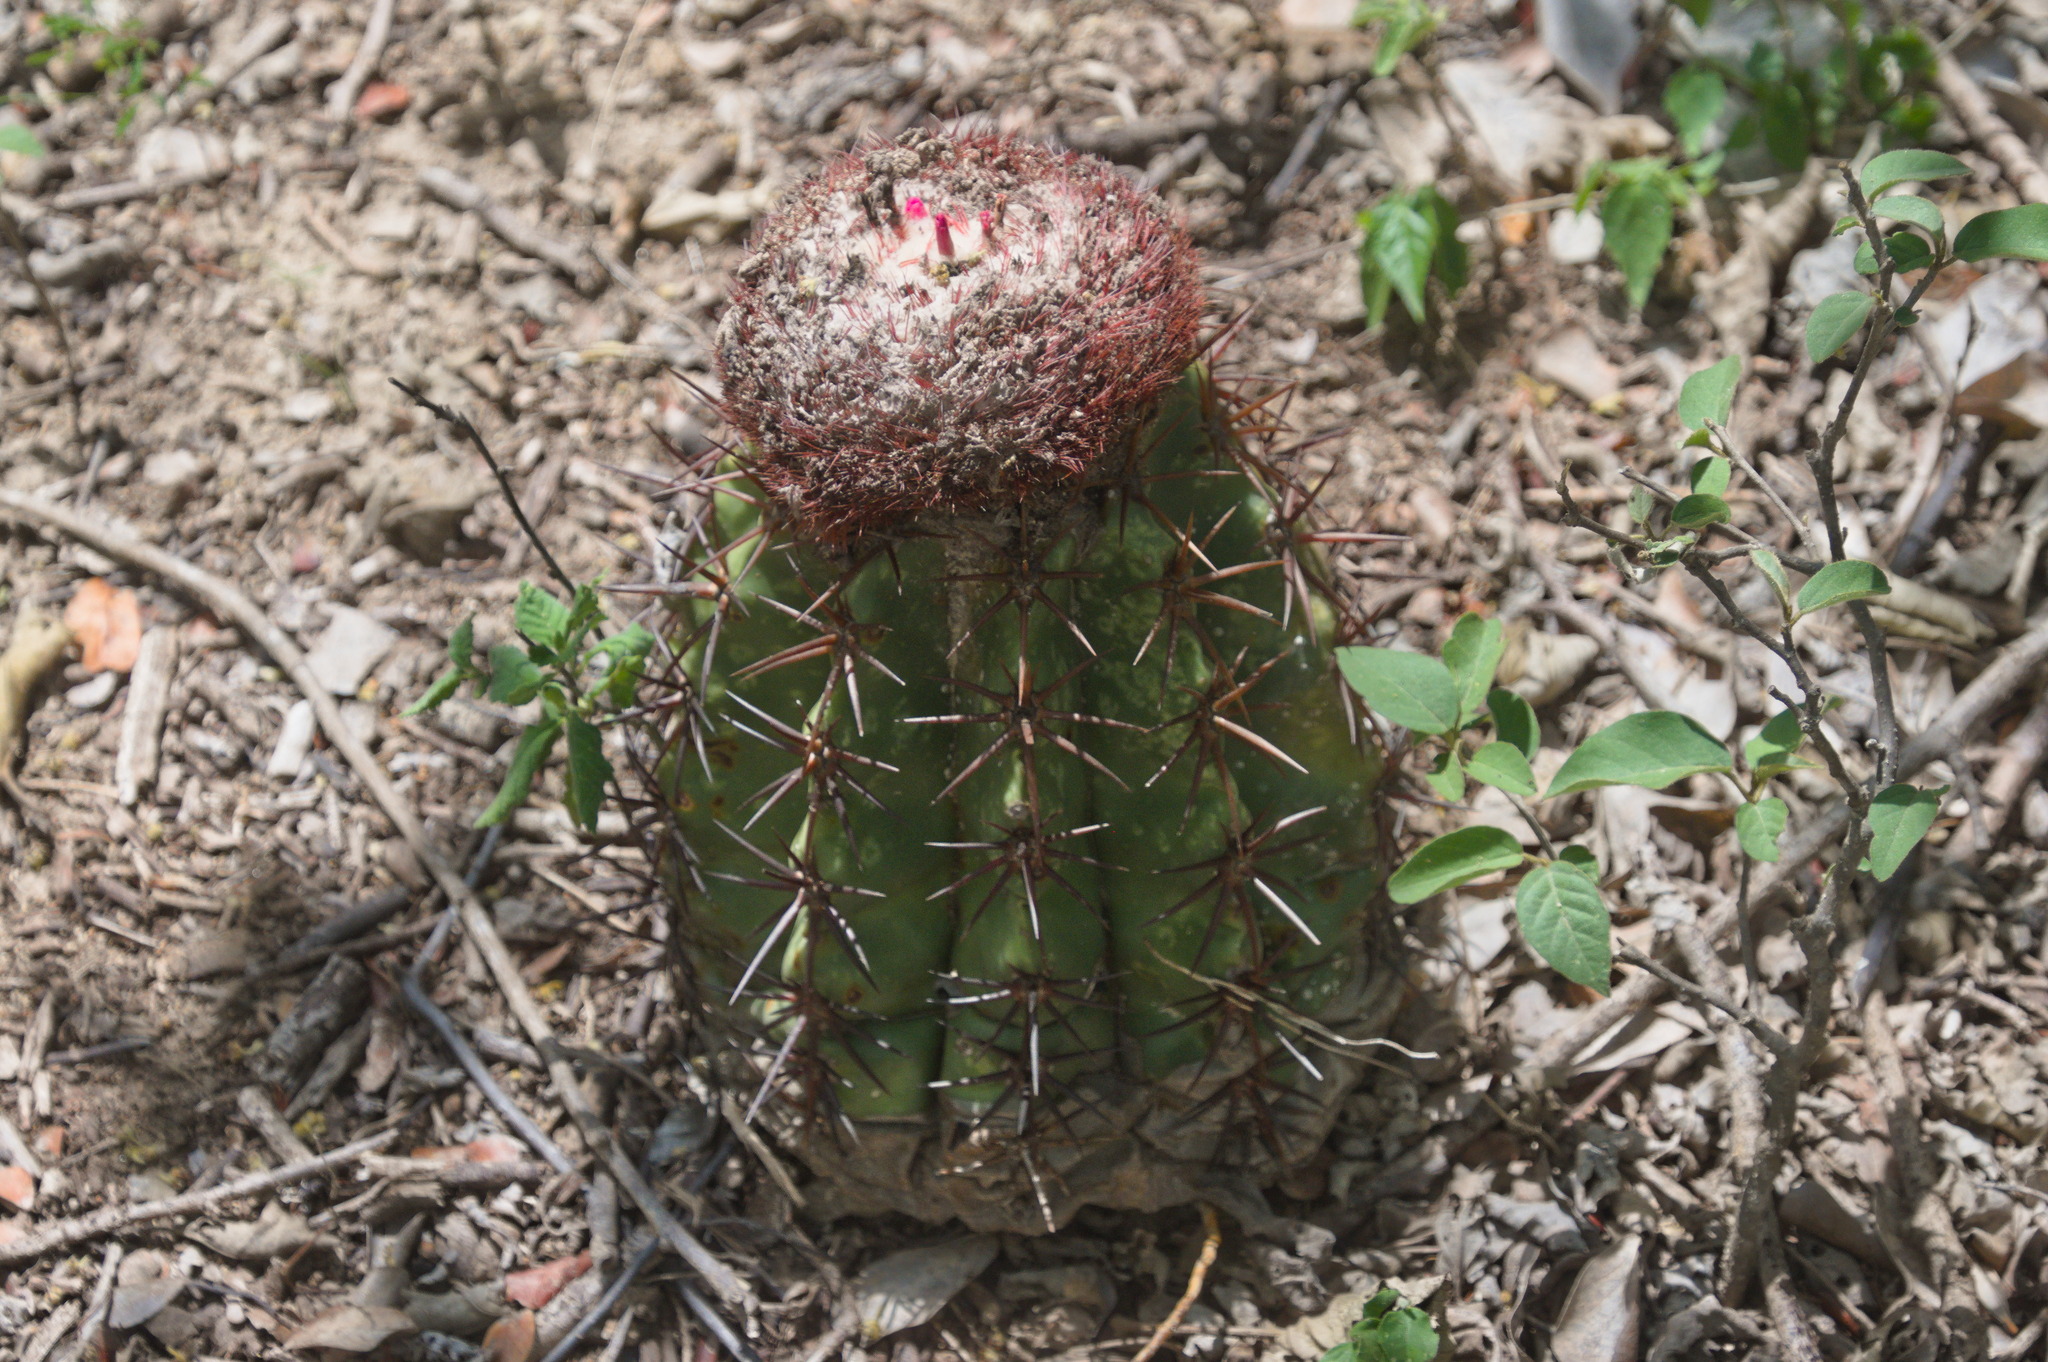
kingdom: Plantae
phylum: Tracheophyta
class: Magnoliopsida
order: Caryophyllales
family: Cactaceae
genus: Melocactus
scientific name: Melocactus curvispinus
